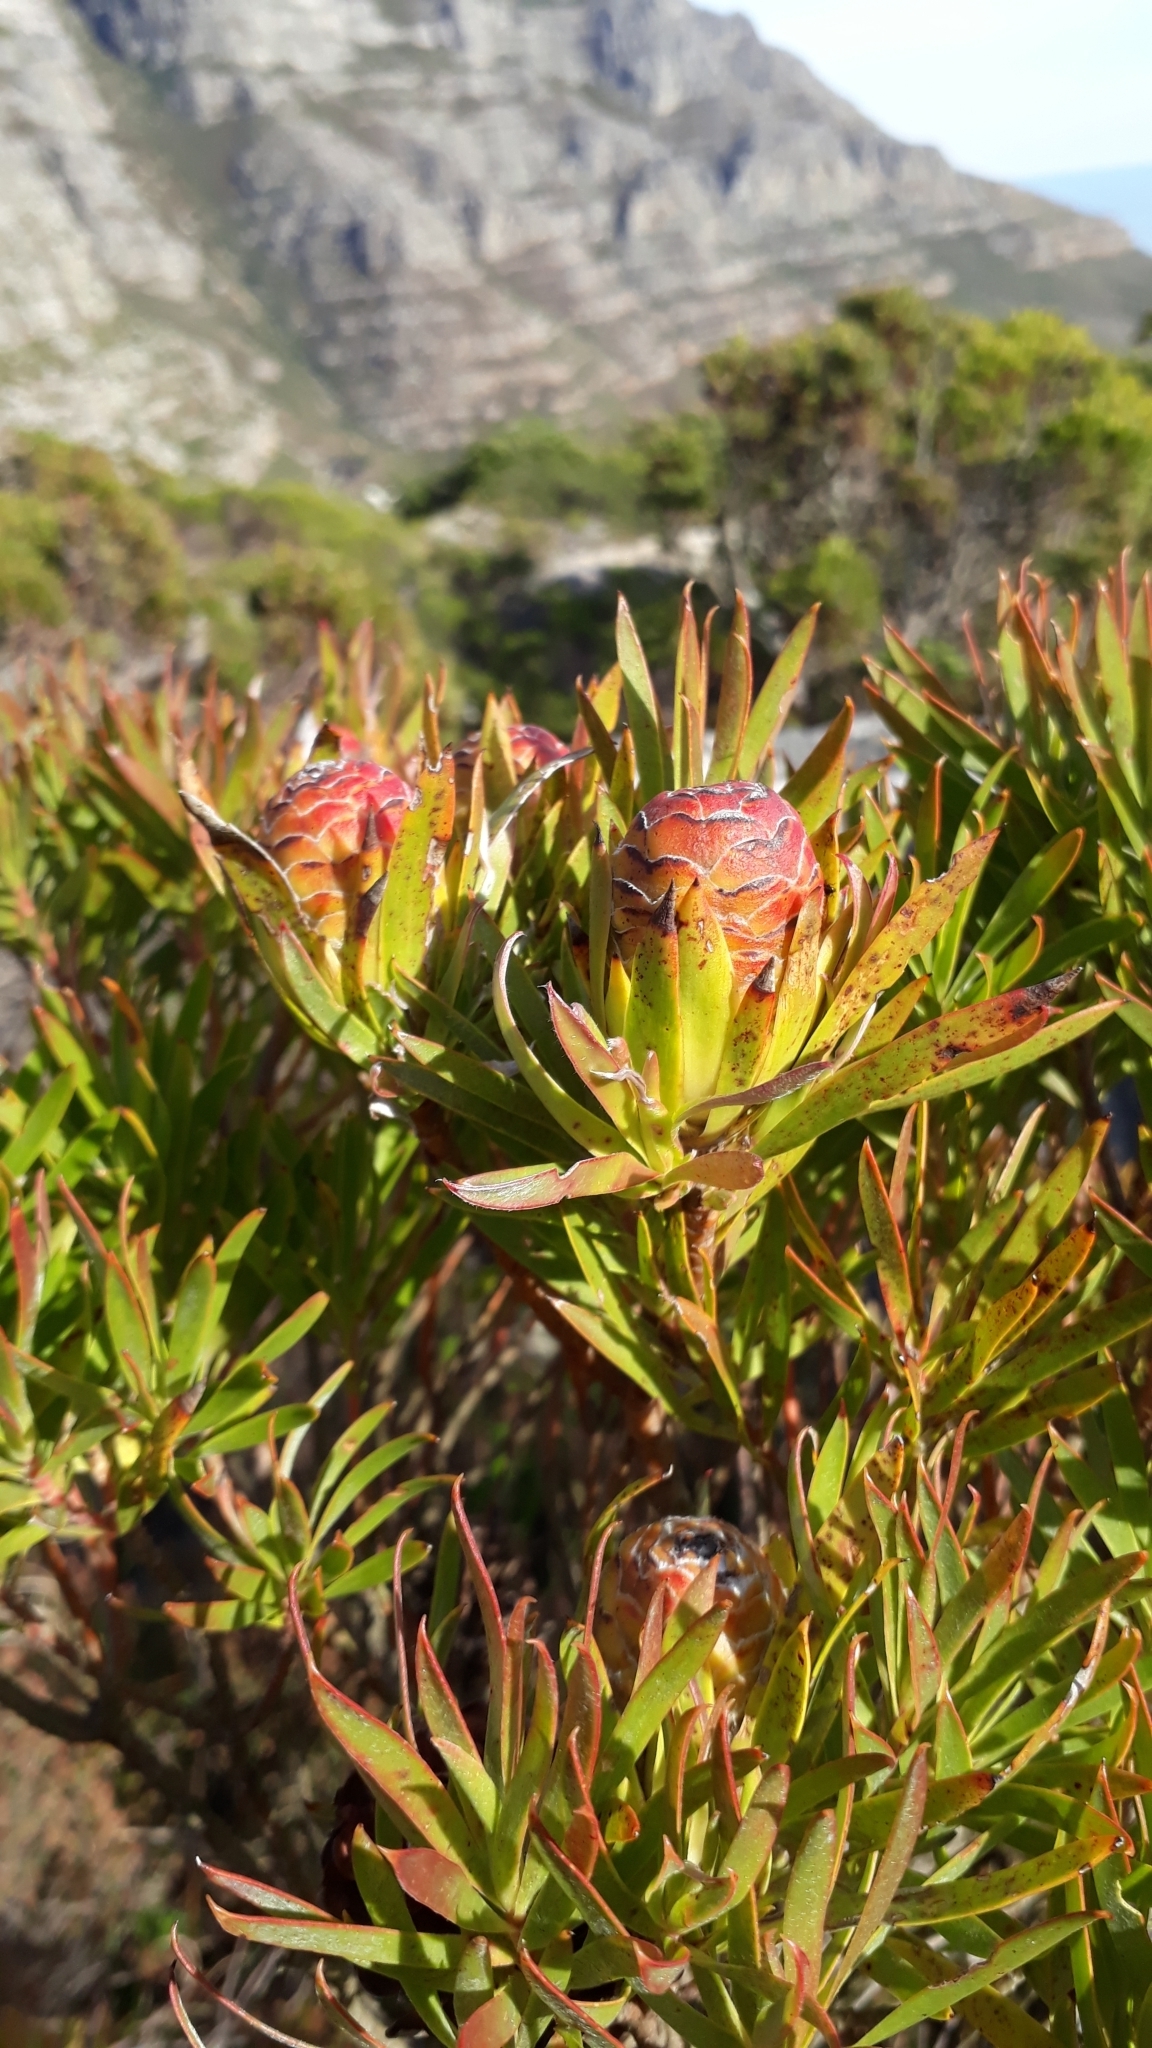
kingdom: Plantae
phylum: Tracheophyta
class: Magnoliopsida
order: Proteales
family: Proteaceae
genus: Leucadendron
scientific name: Leucadendron xanthoconus
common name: Sickle-leaf conebush
